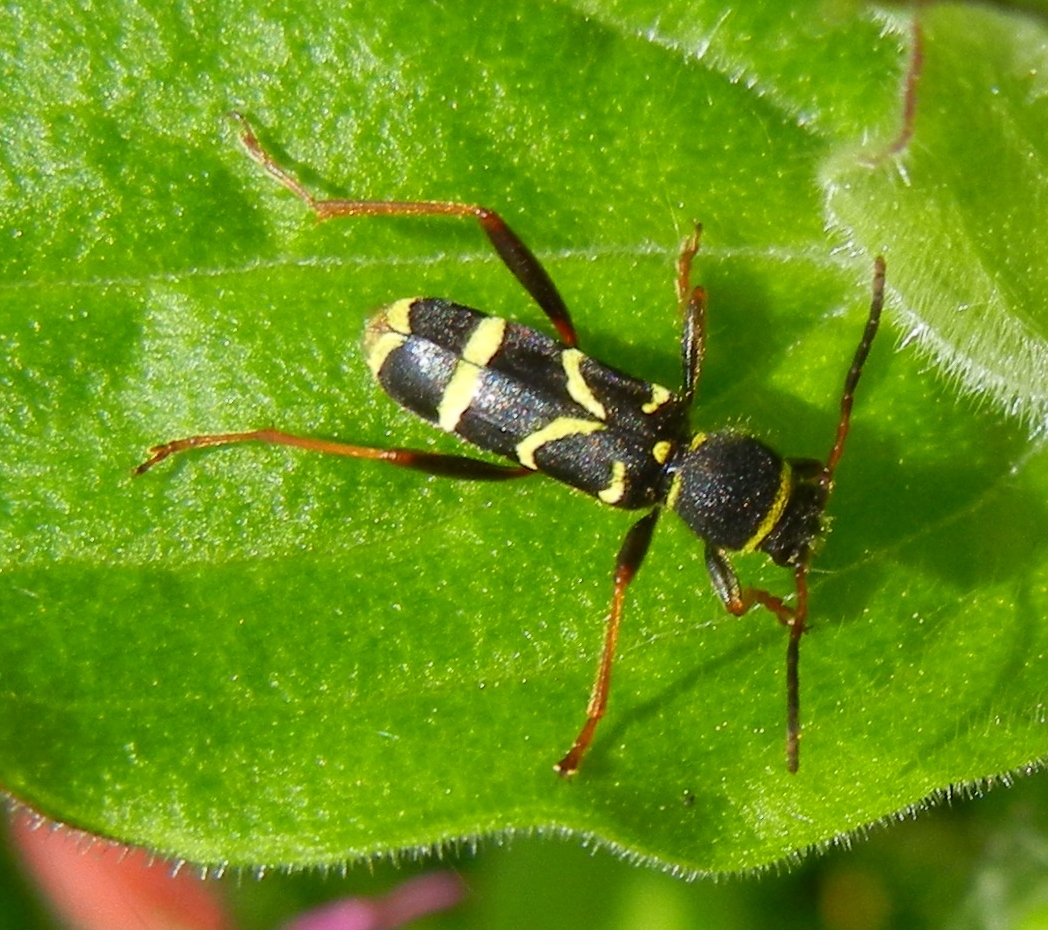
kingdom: Animalia
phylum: Arthropoda
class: Insecta
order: Coleoptera
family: Cerambycidae
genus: Clytus
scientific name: Clytus arietis
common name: Wasp beetle
